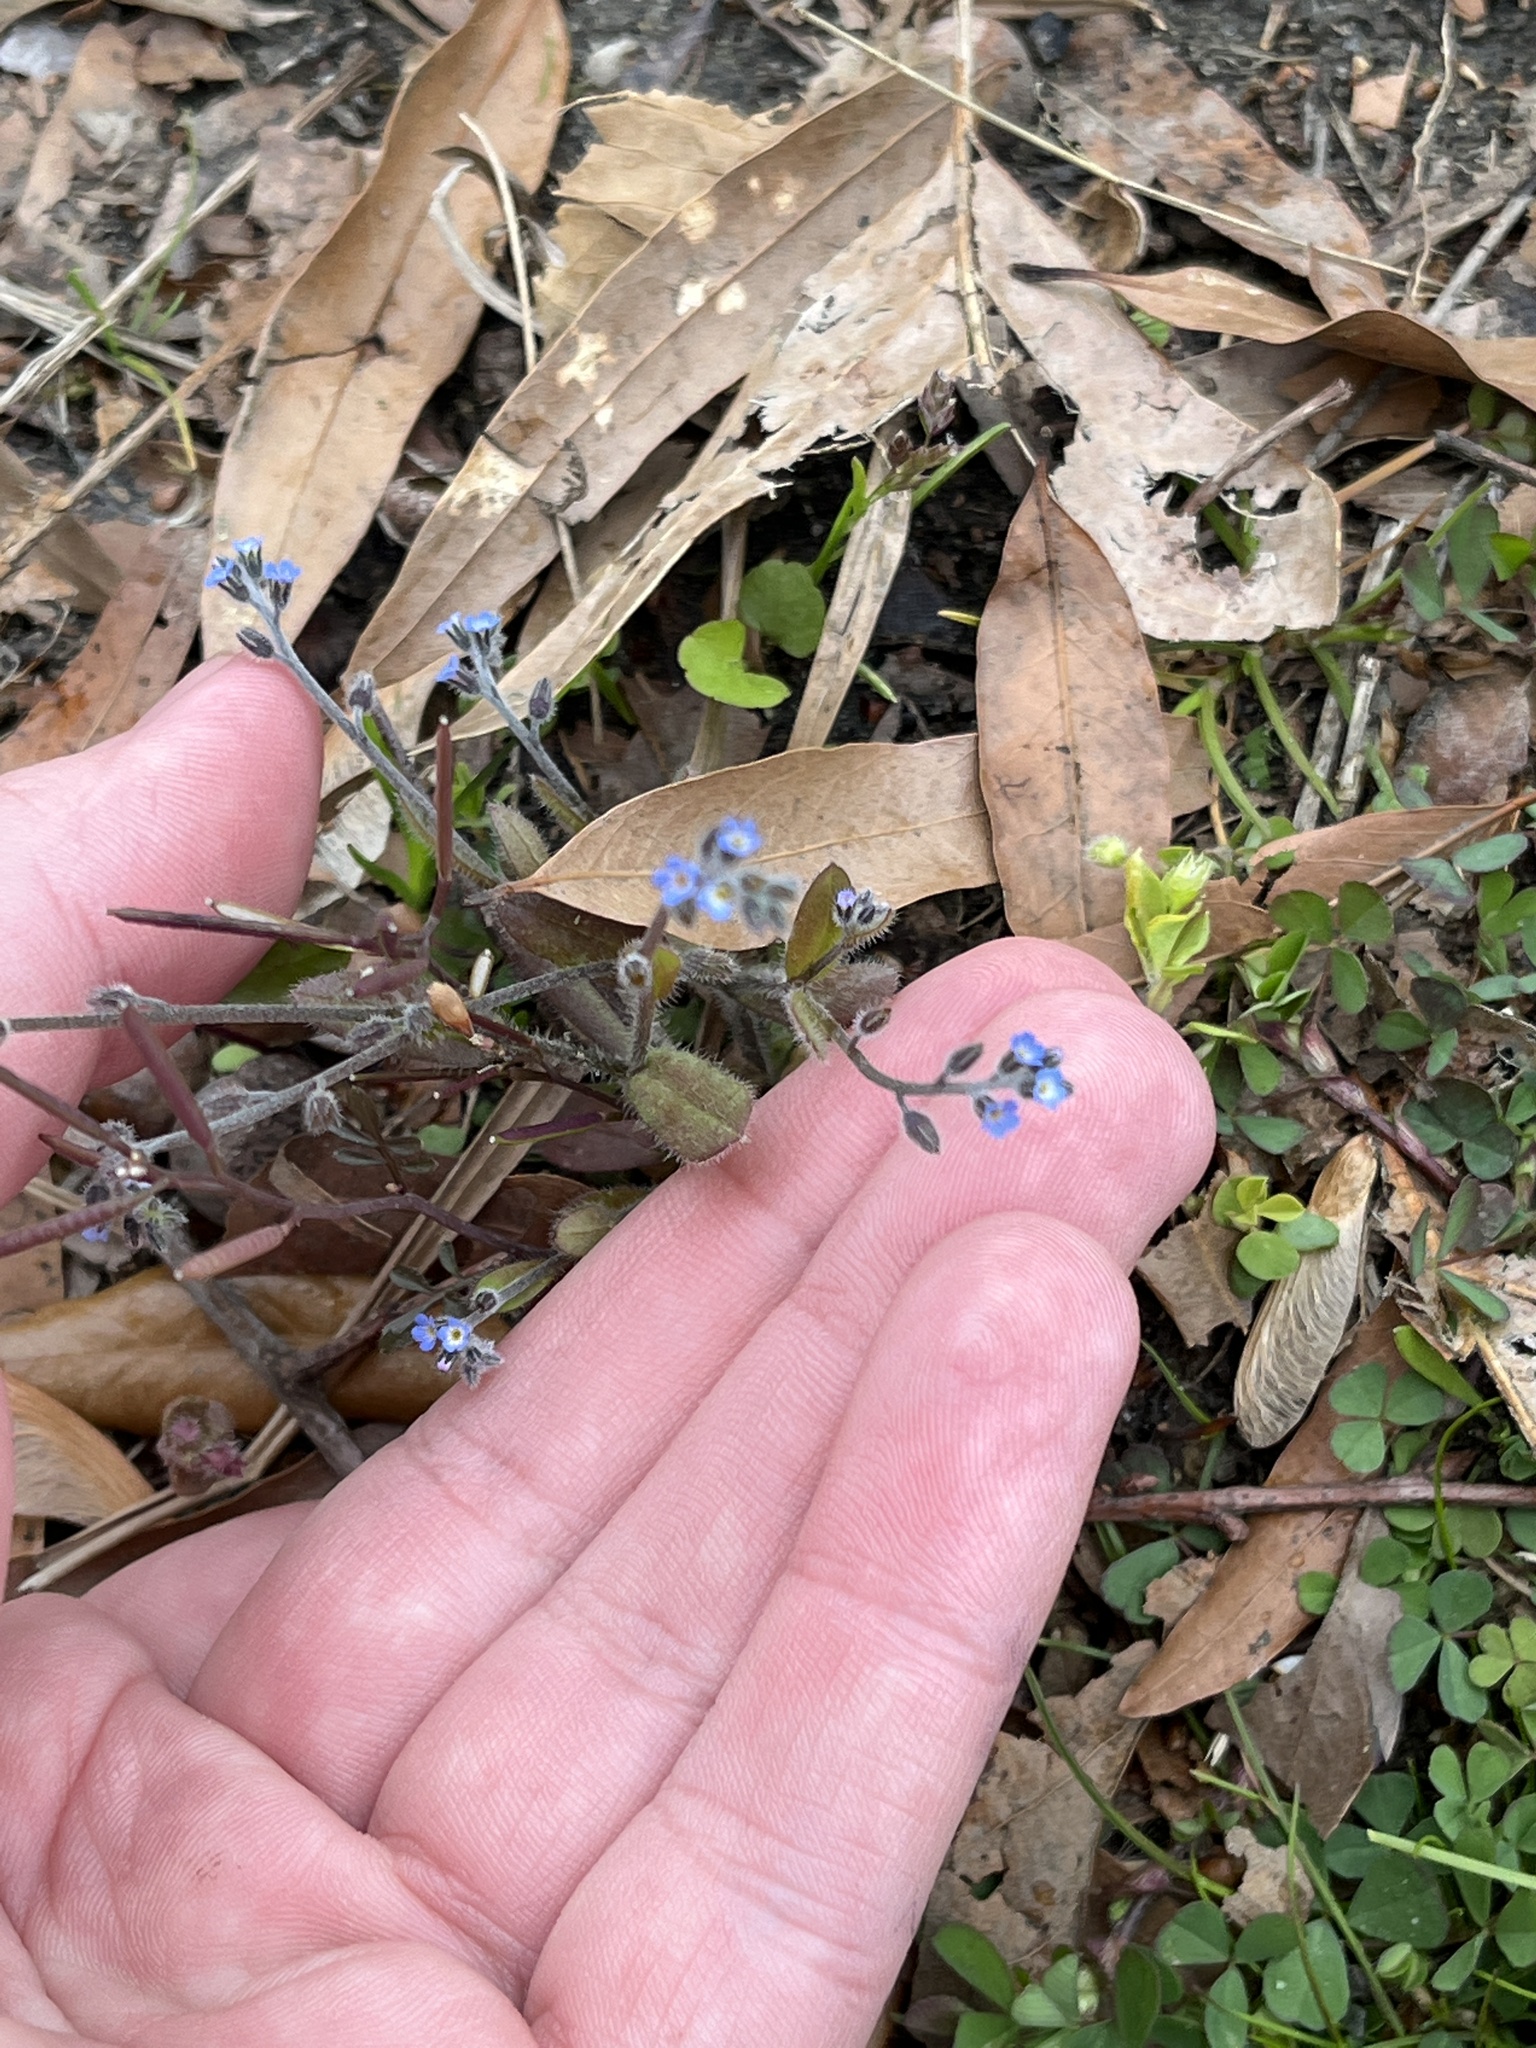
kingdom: Plantae
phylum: Tracheophyta
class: Magnoliopsida
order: Boraginales
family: Boraginaceae
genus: Myosotis
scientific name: Myosotis ramosissima
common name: Early forget-me-not
